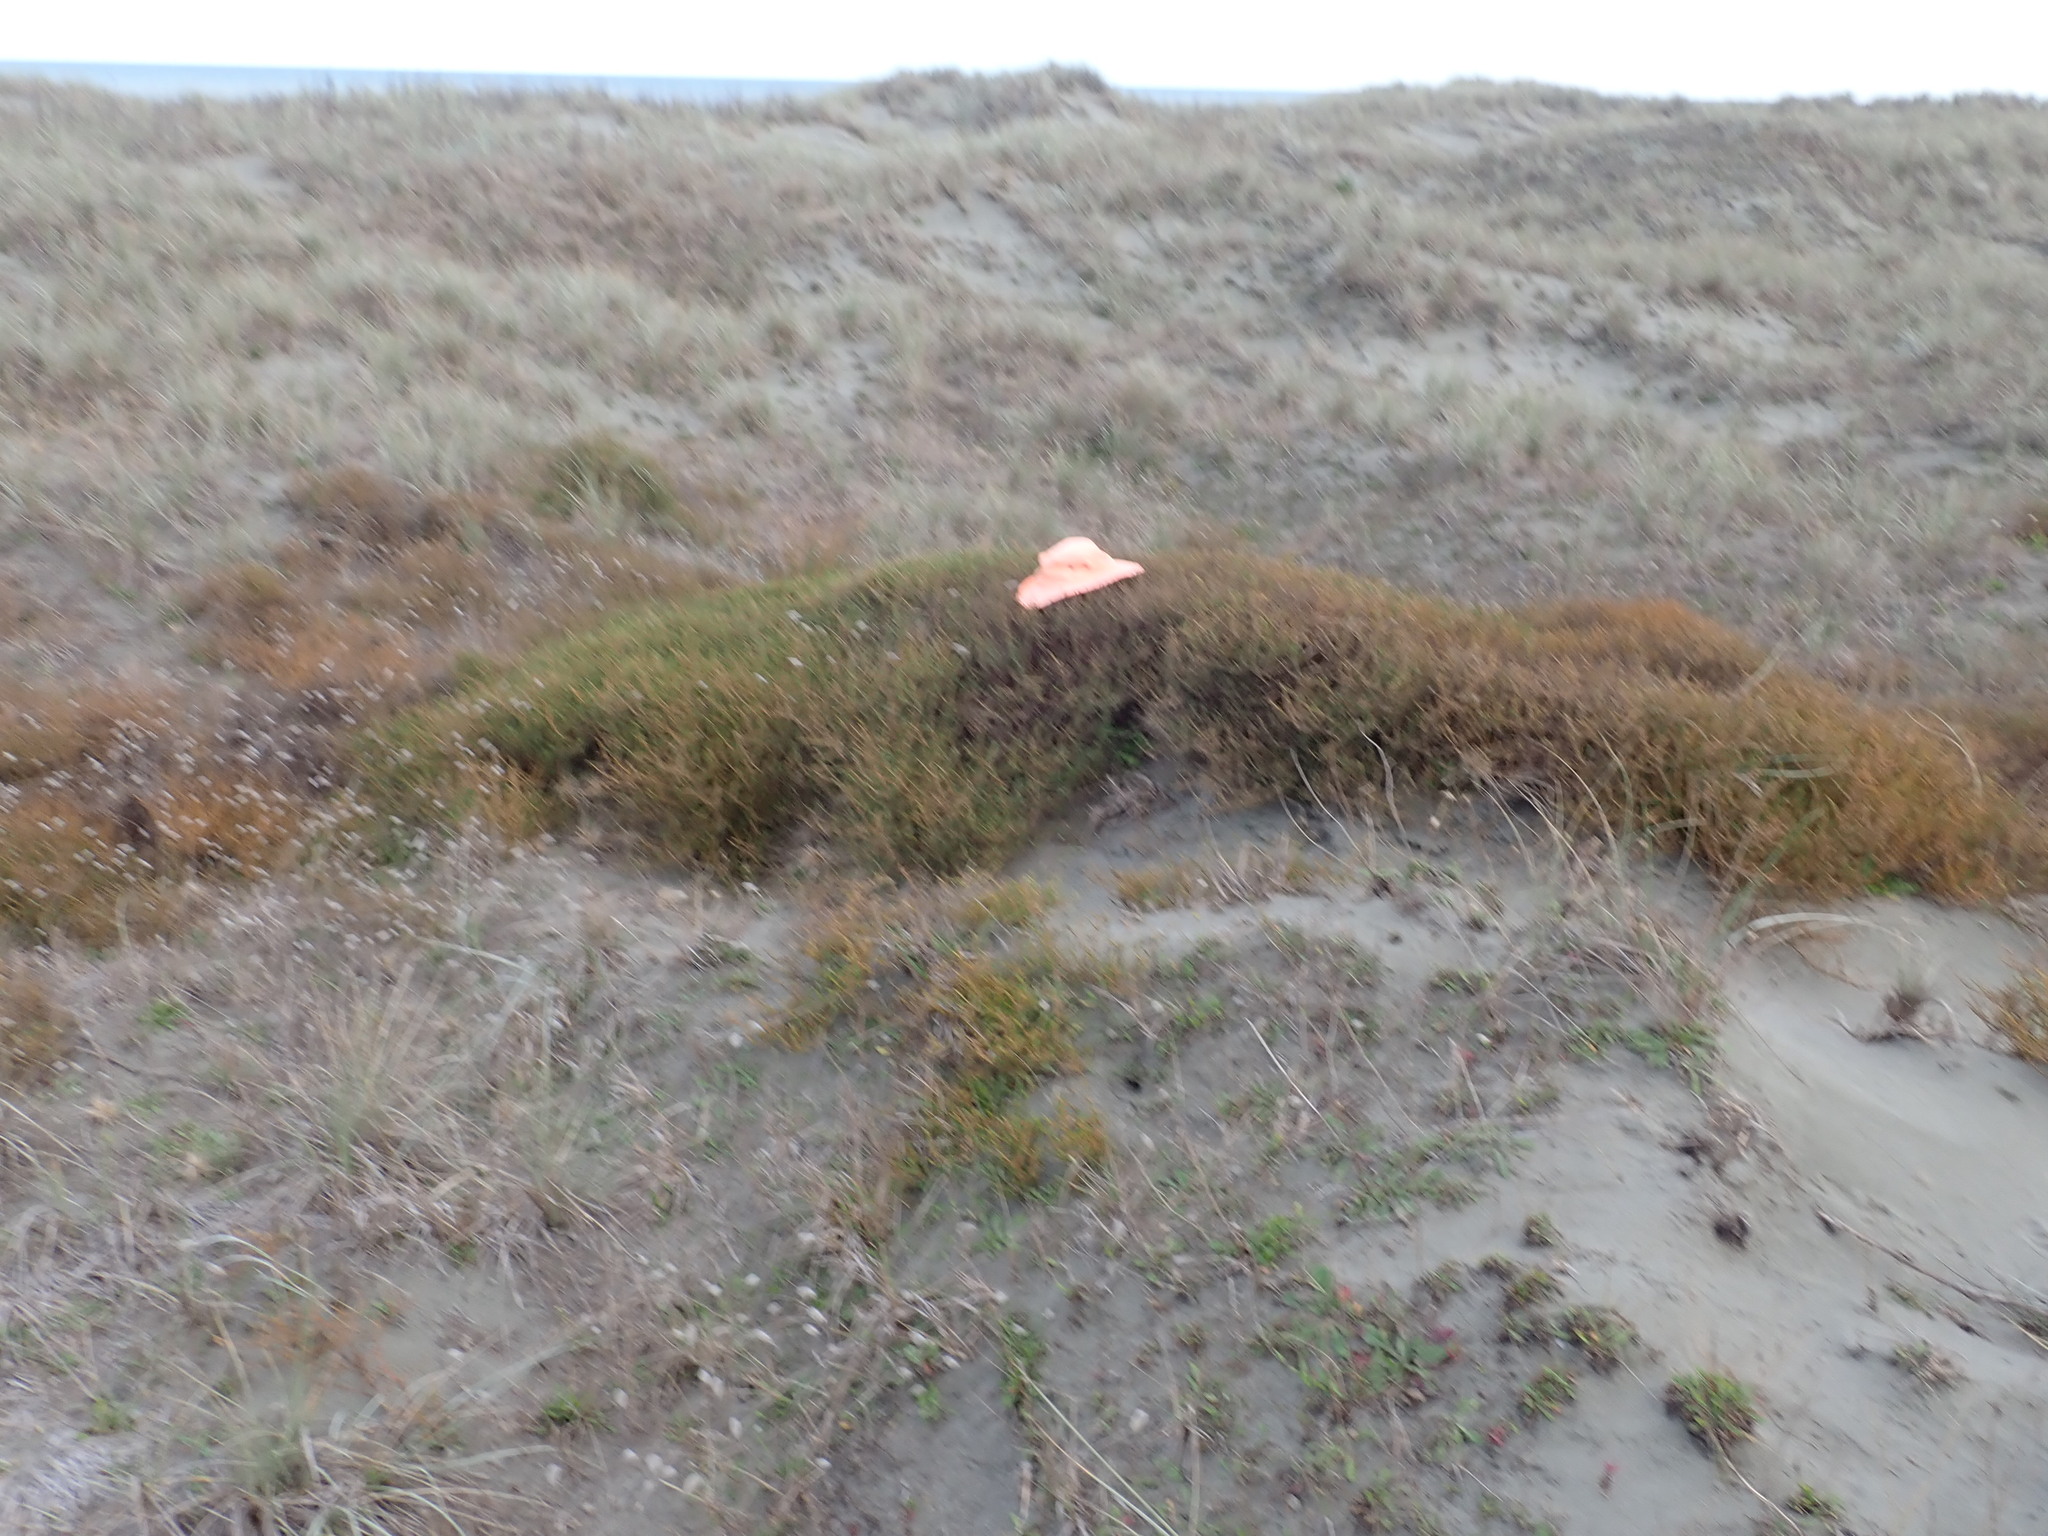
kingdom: Plantae
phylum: Tracheophyta
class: Magnoliopsida
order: Gentianales
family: Rubiaceae
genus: Coprosma
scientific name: Coprosma acerosa
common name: Sand coprosma
